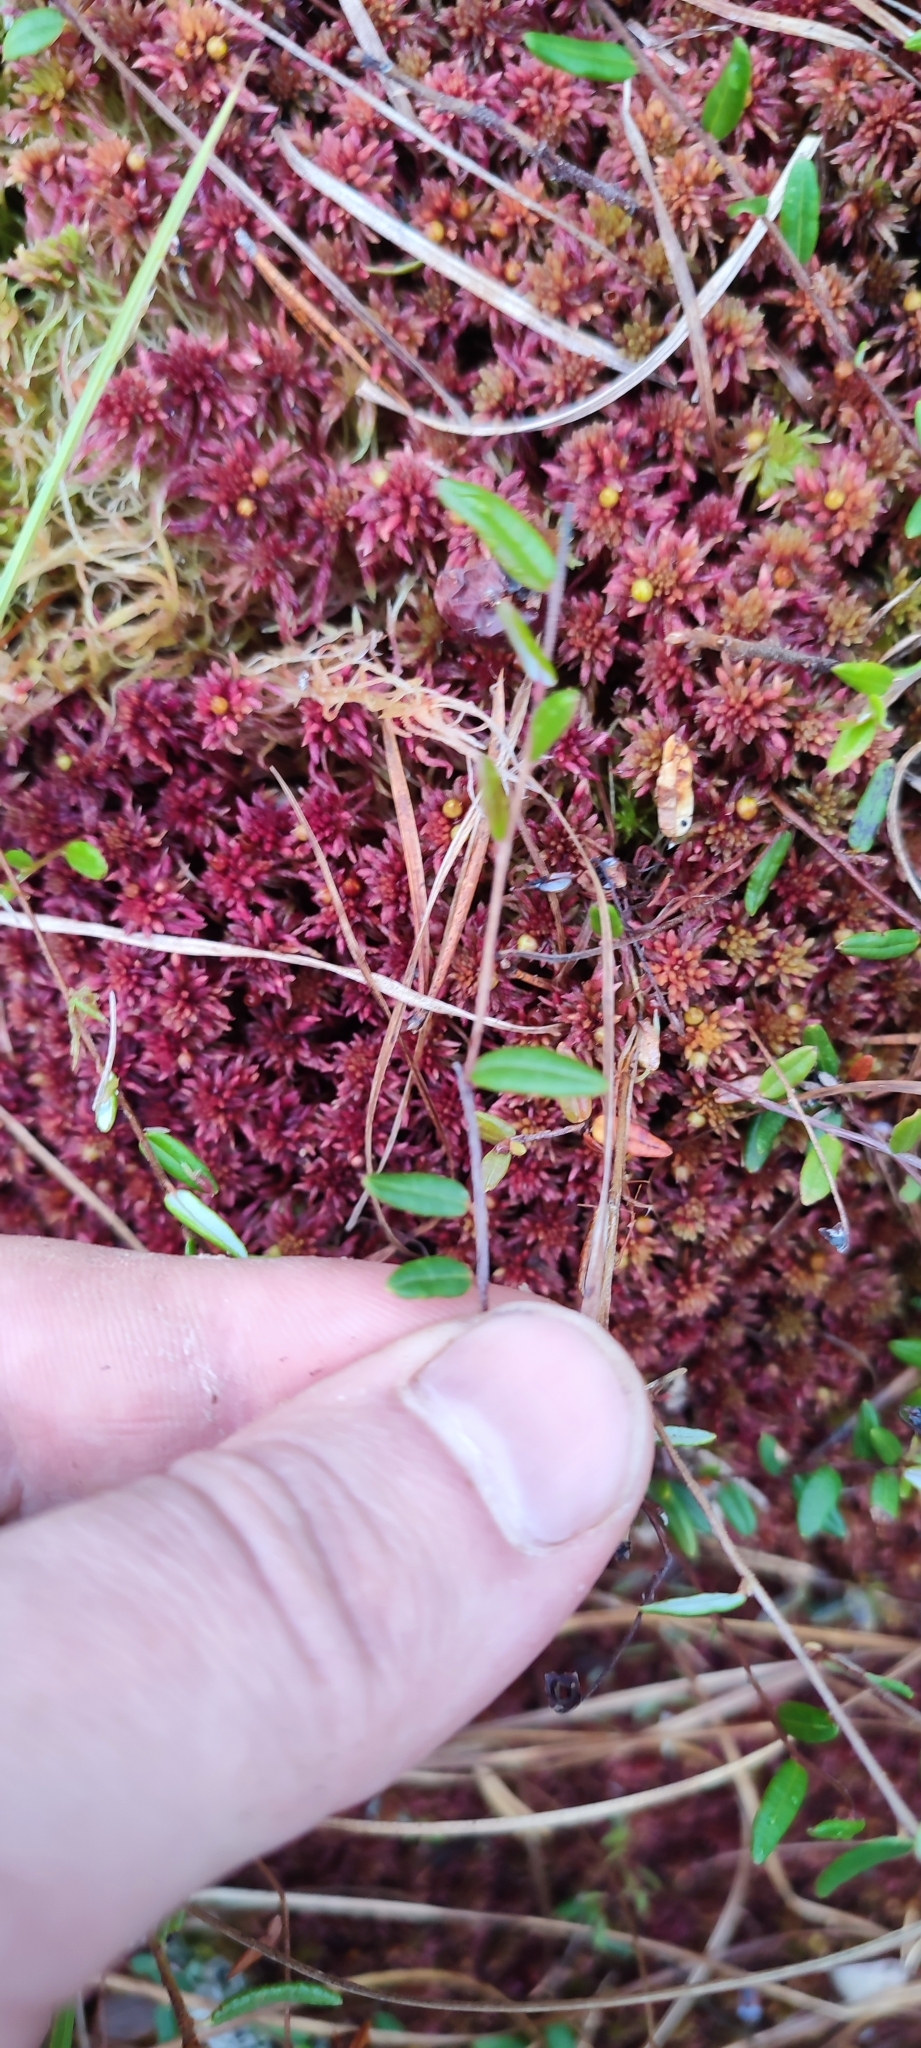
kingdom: Plantae
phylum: Tracheophyta
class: Magnoliopsida
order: Ericales
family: Ericaceae
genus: Vaccinium
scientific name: Vaccinium oxycoccos
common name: Cranberry
